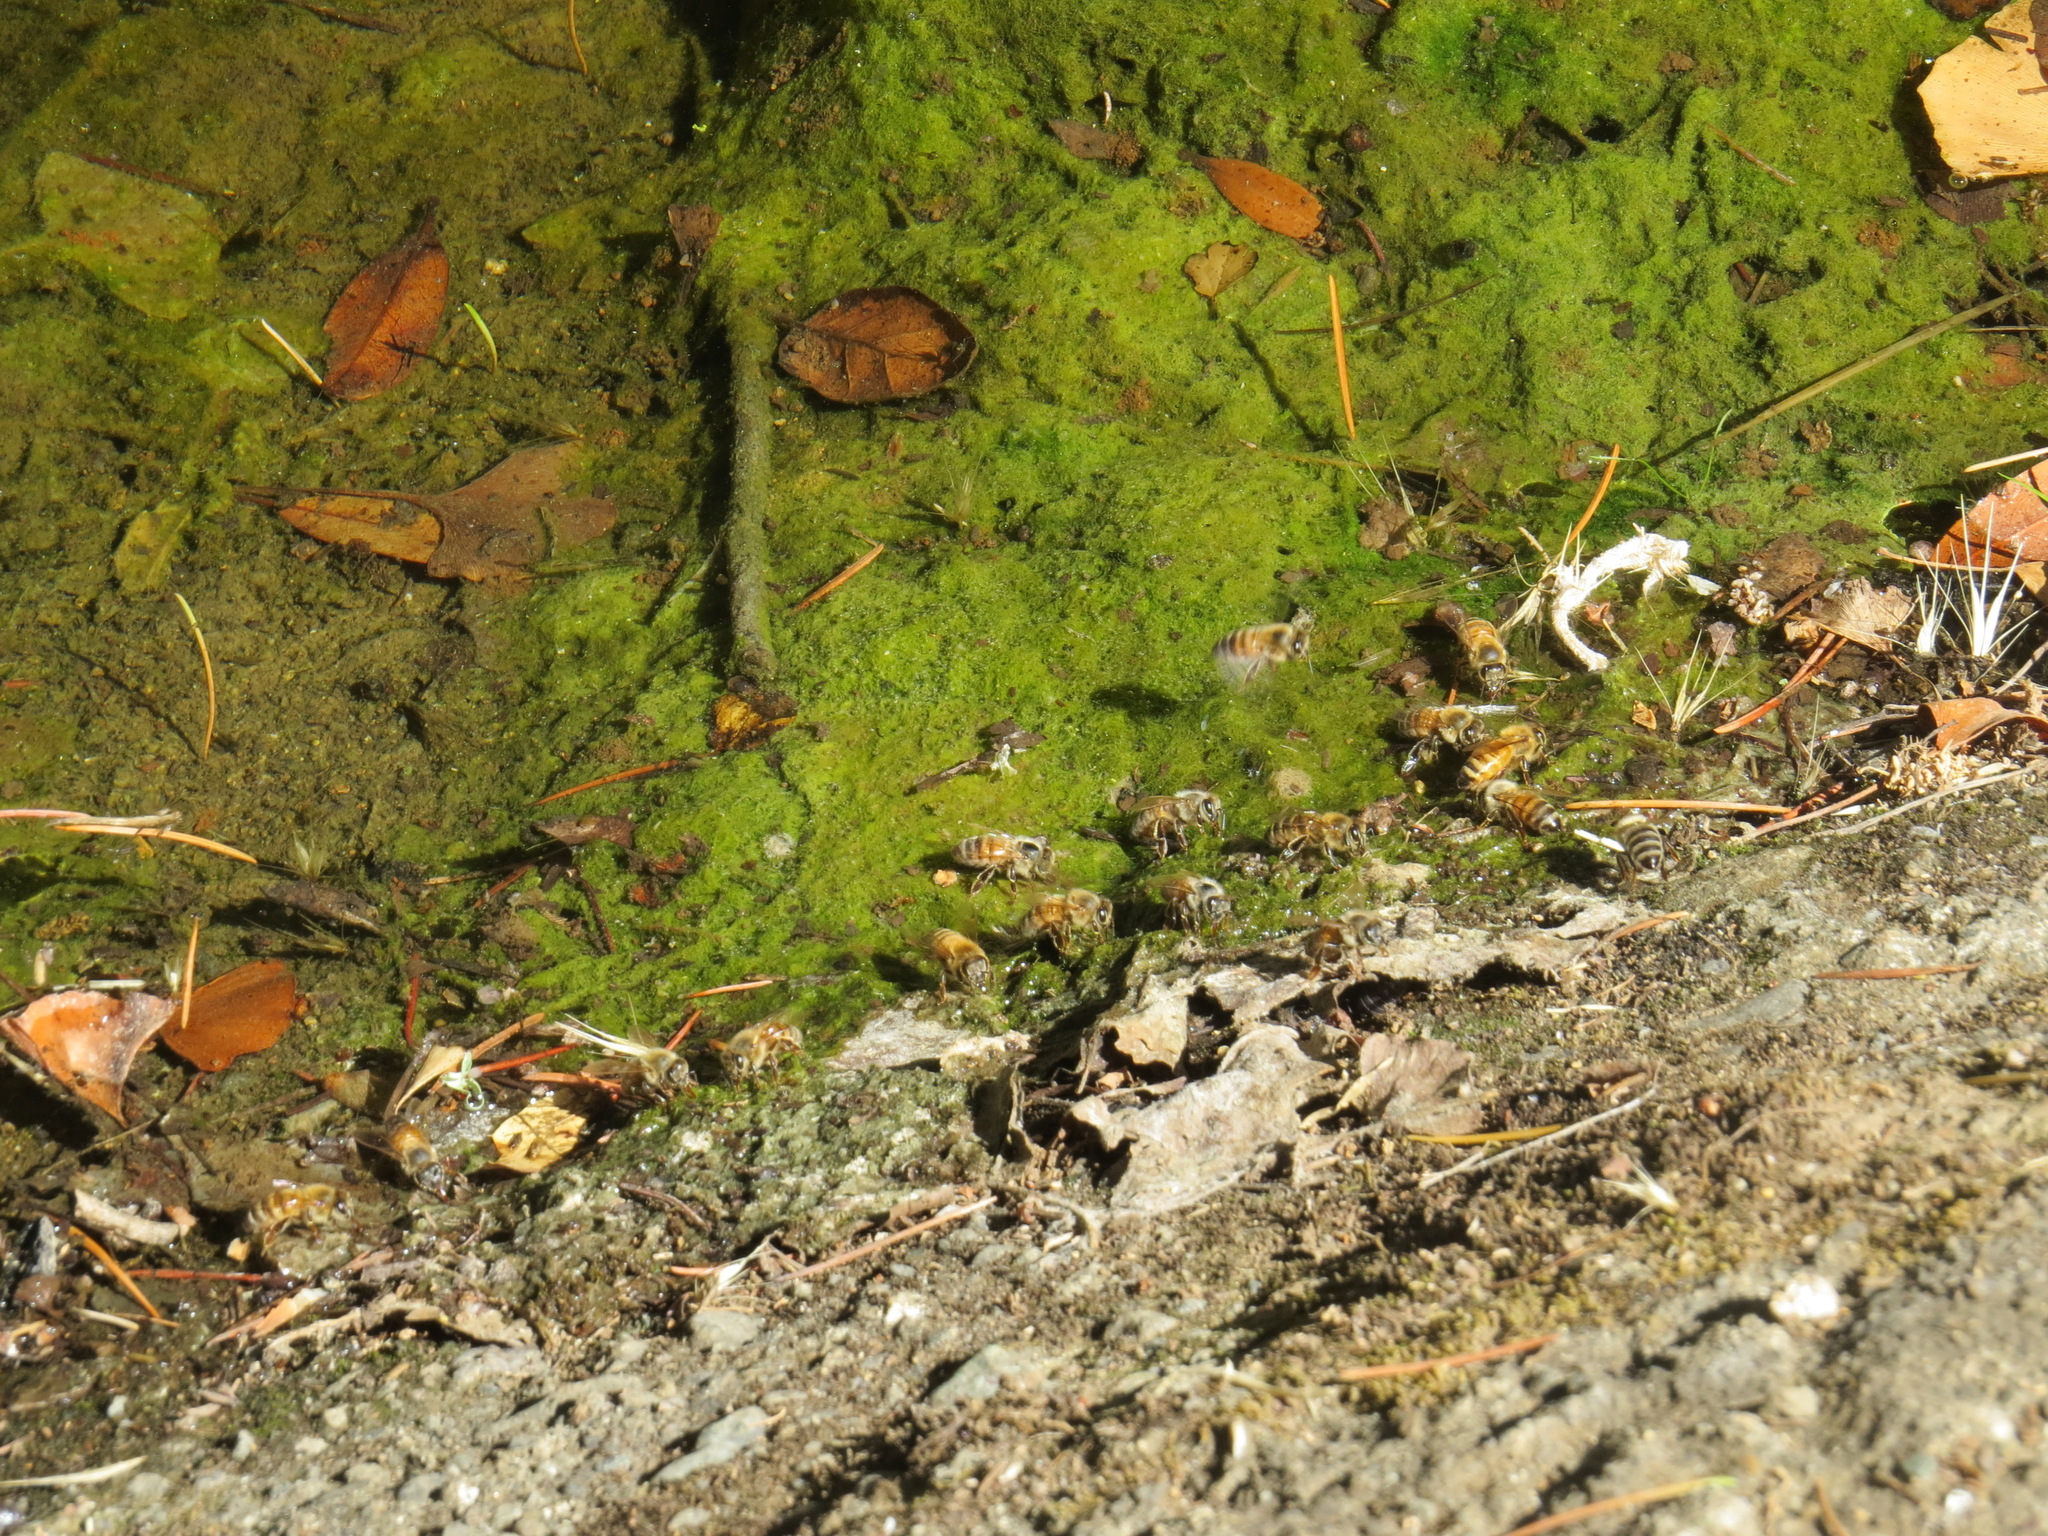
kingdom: Animalia
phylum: Arthropoda
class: Insecta
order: Hymenoptera
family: Apidae
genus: Apis
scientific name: Apis mellifera
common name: Honey bee
